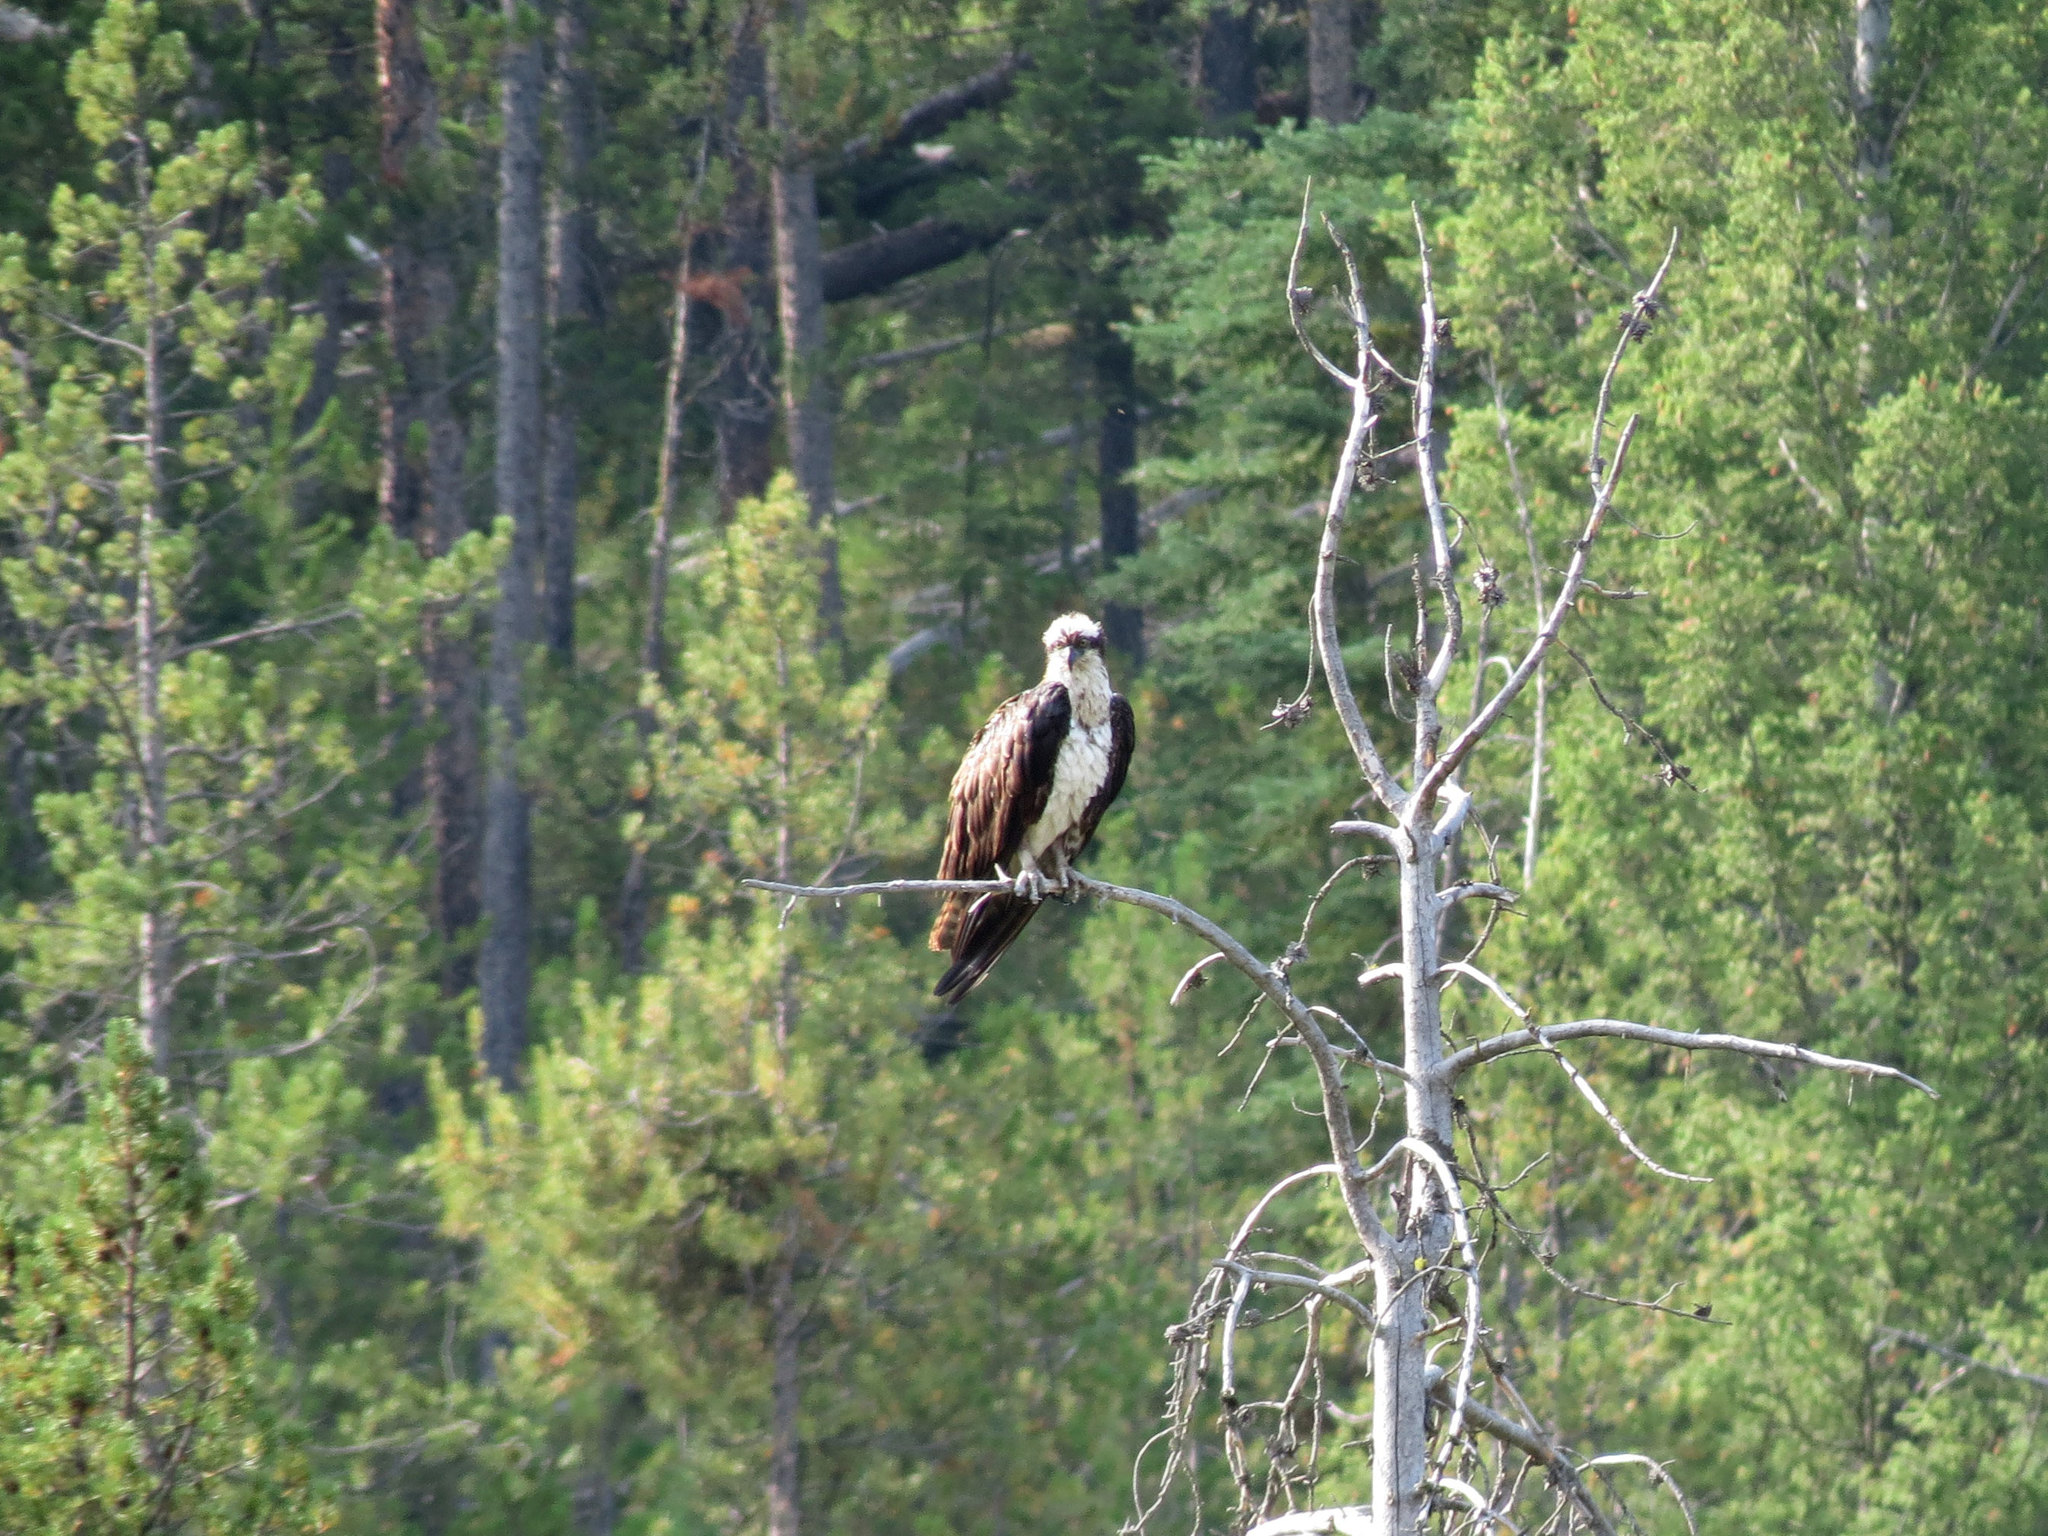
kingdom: Animalia
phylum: Chordata
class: Aves
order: Accipitriformes
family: Pandionidae
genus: Pandion
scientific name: Pandion haliaetus
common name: Osprey
